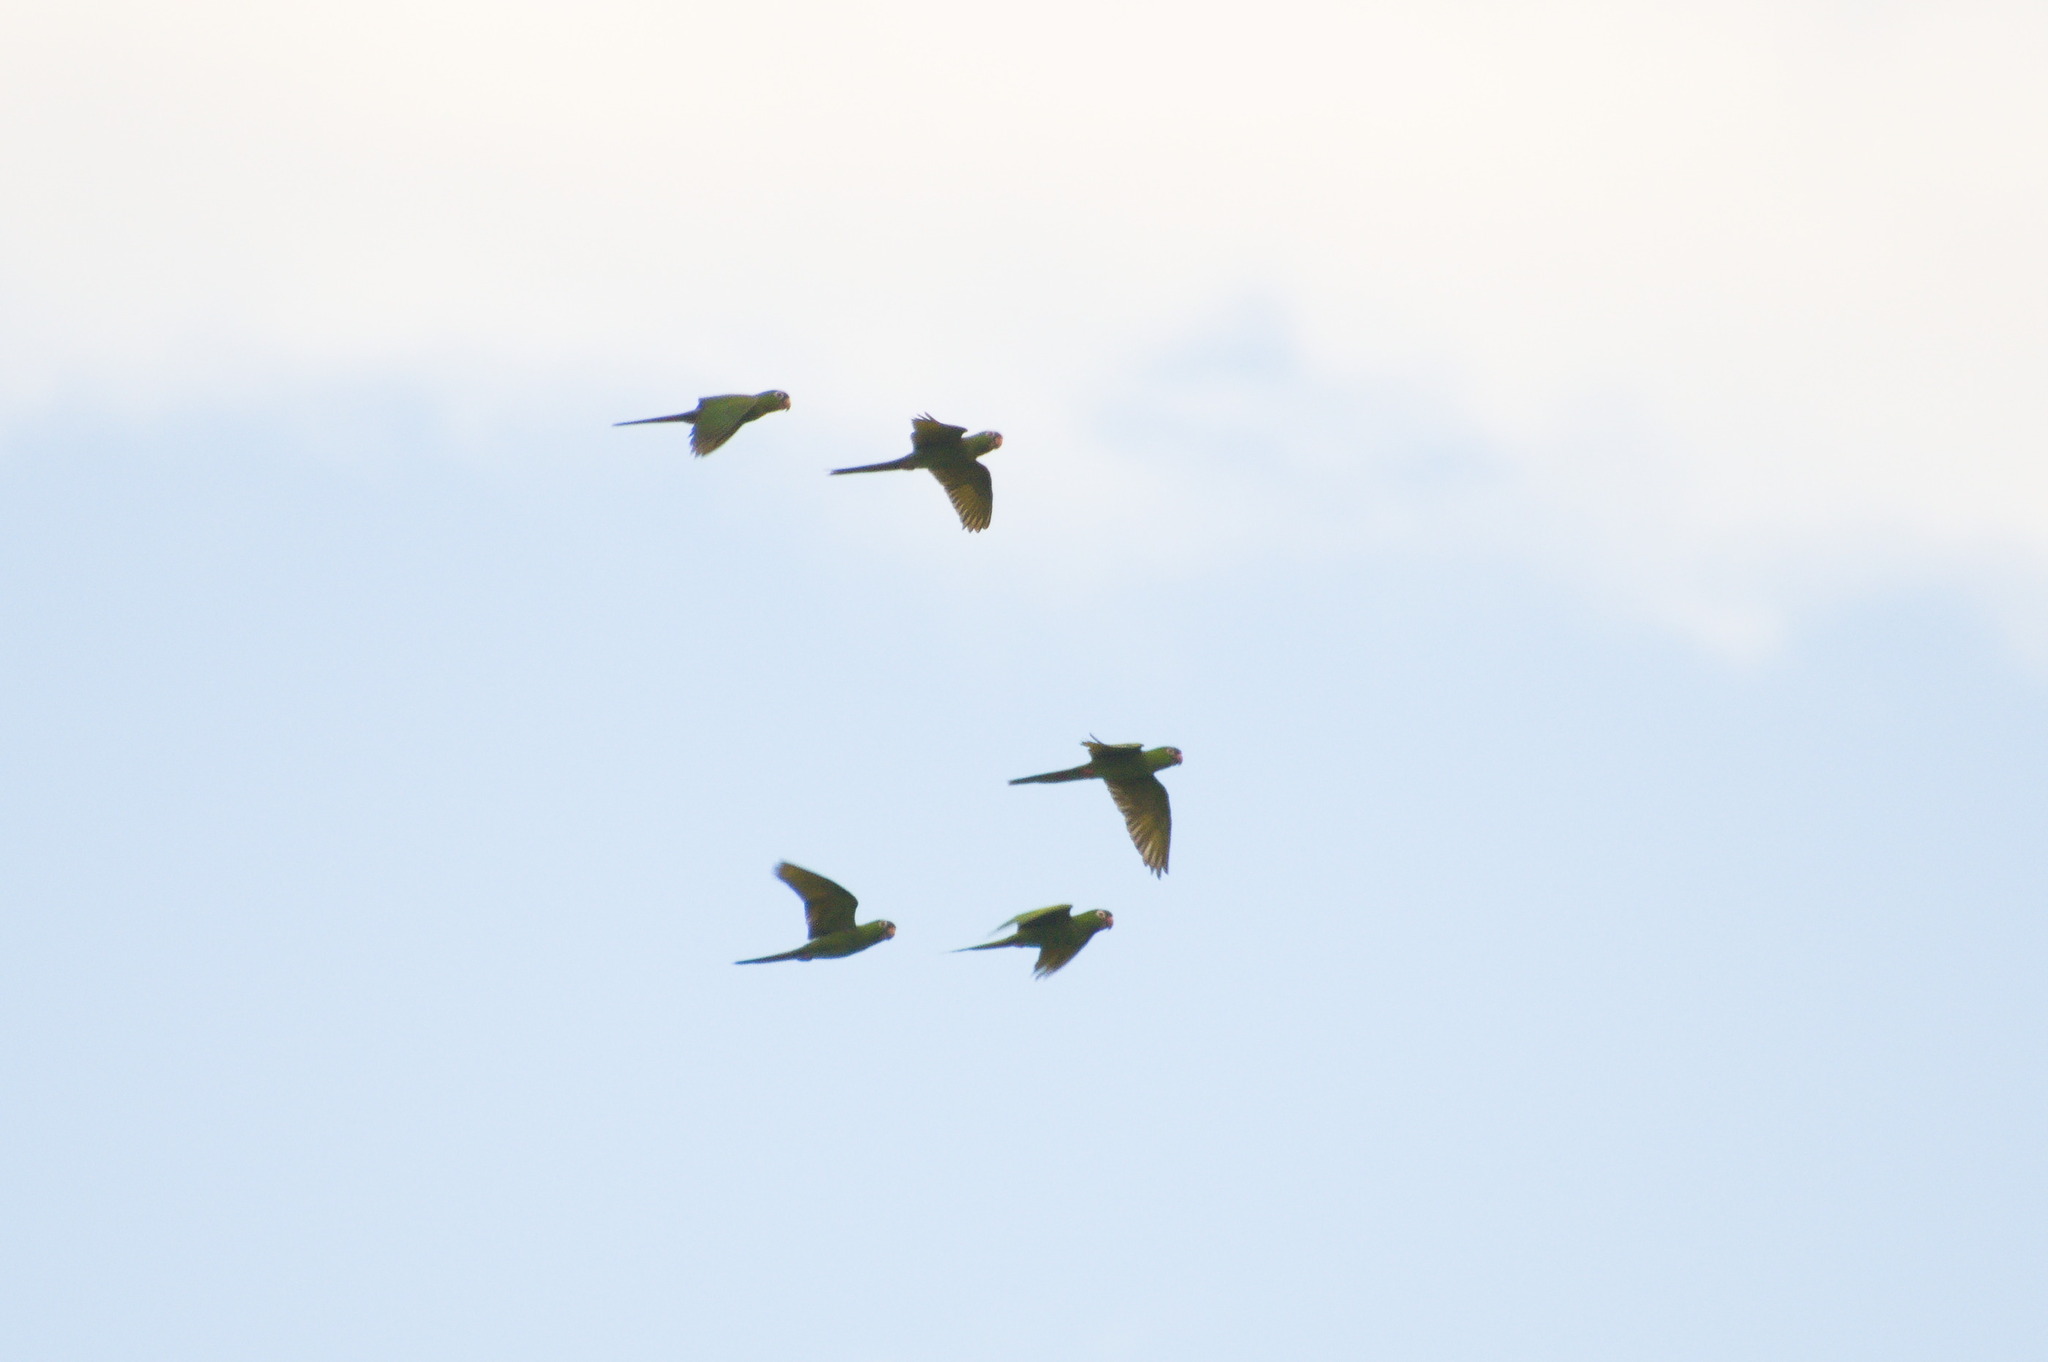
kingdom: Animalia
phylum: Chordata
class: Aves
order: Psittaciformes
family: Psittacidae
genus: Aratinga
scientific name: Aratinga acuticaudata
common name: Blue-crowned parakeet
